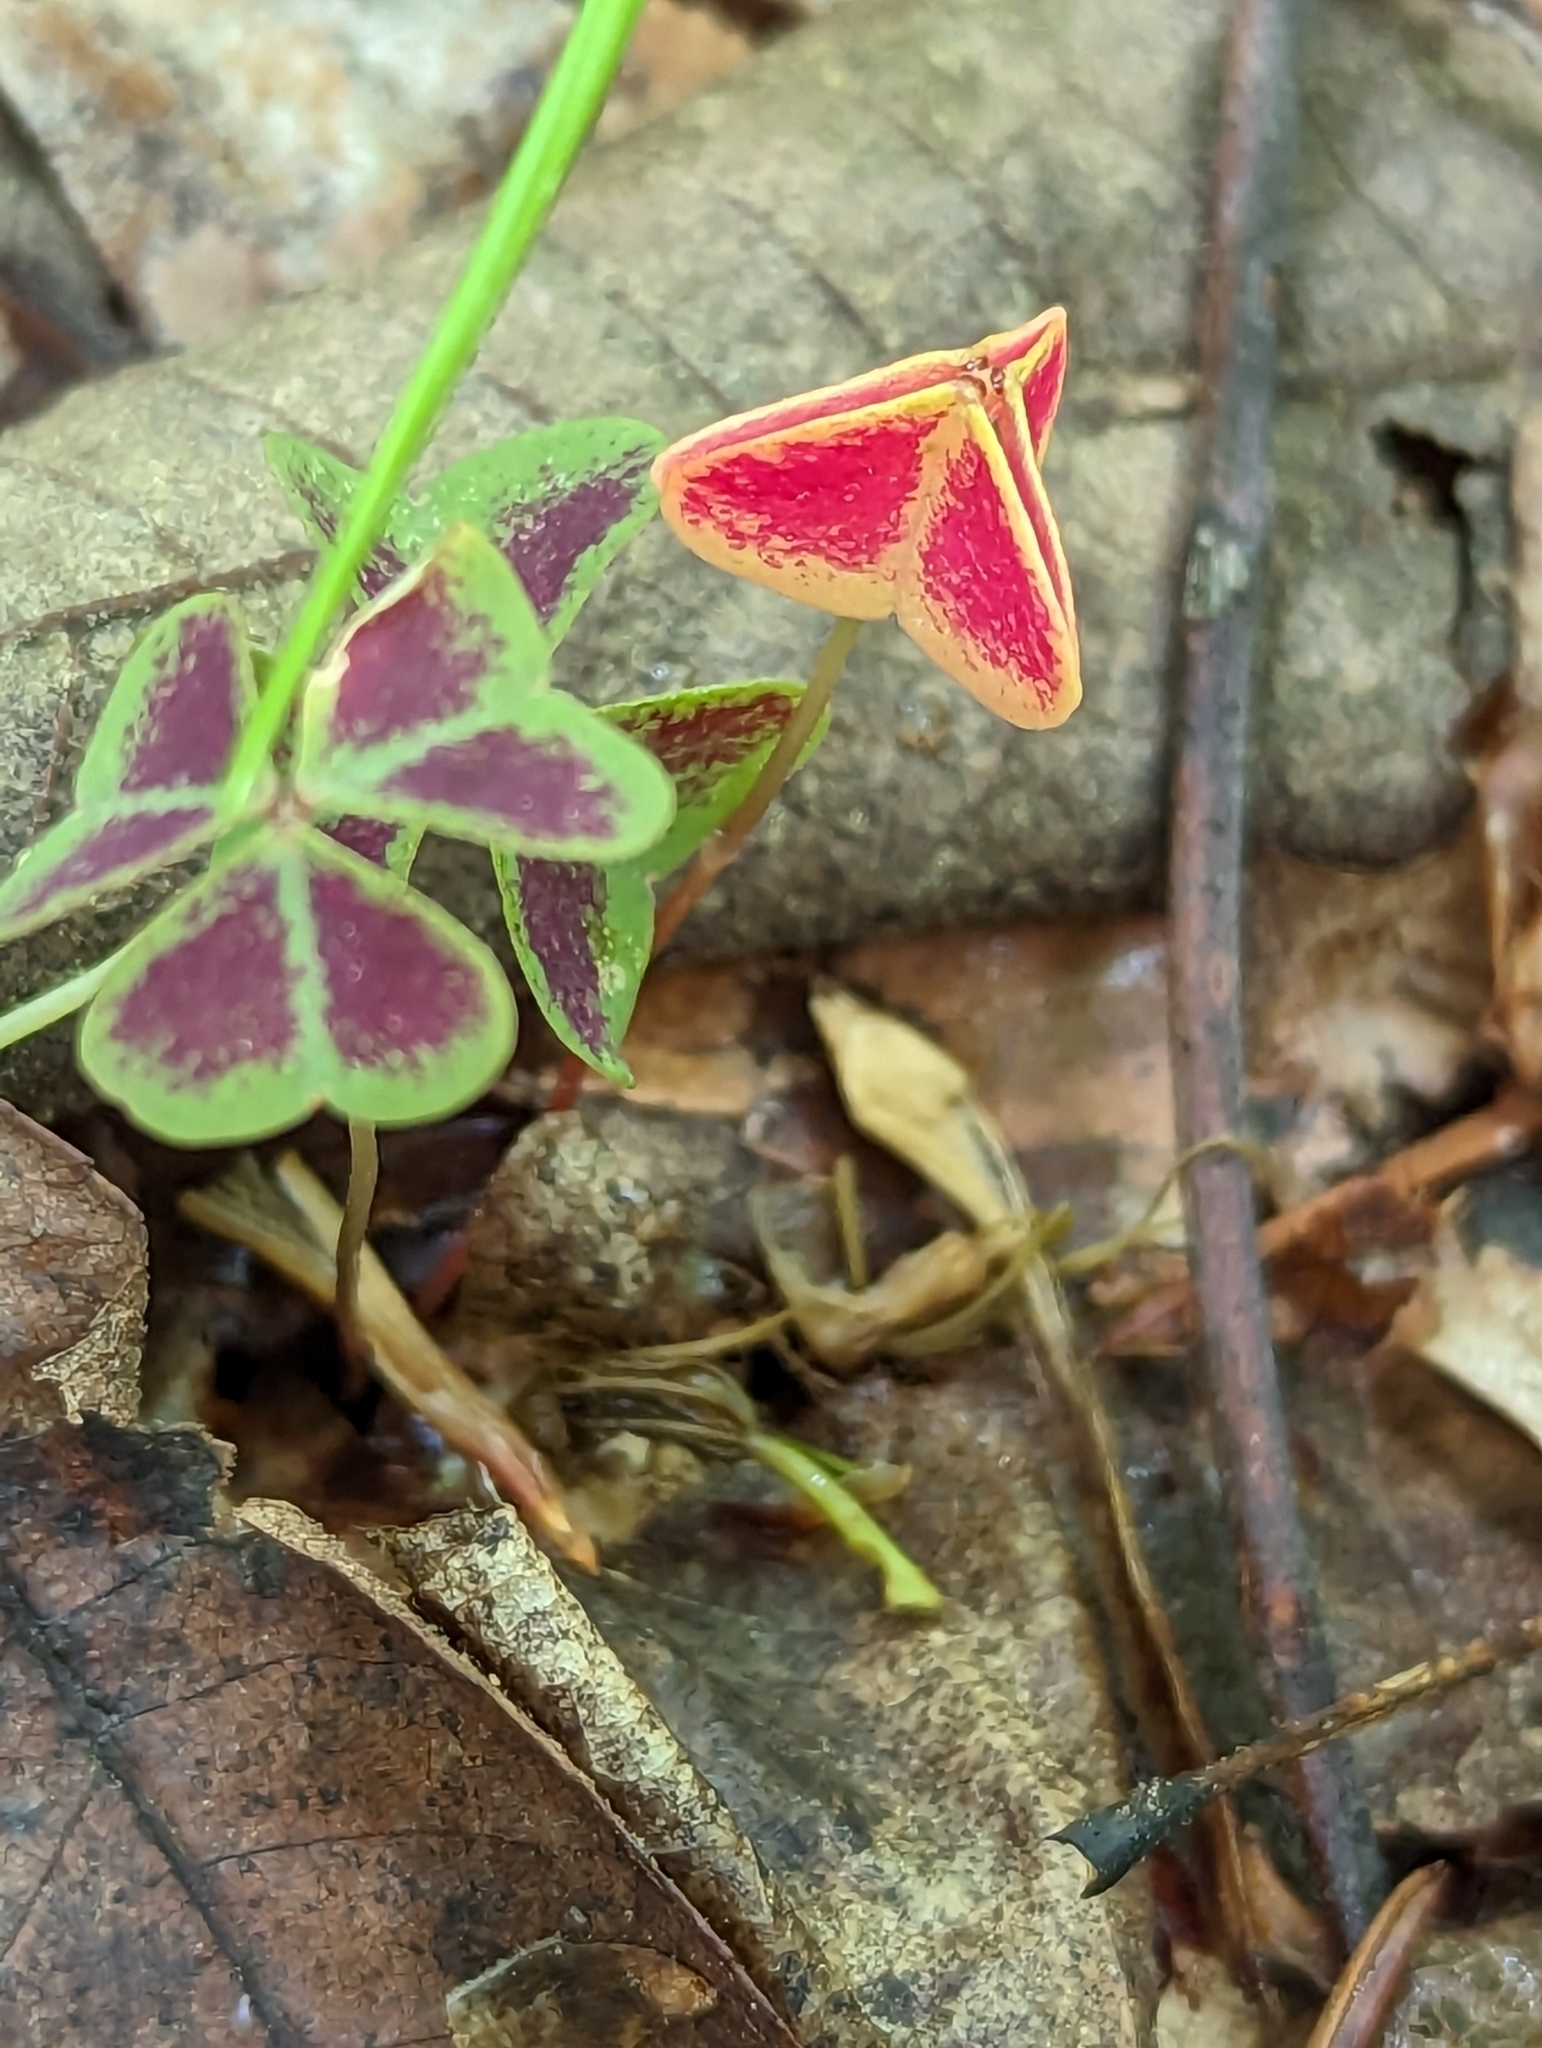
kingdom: Plantae
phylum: Tracheophyta
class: Magnoliopsida
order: Oxalidales
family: Oxalidaceae
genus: Oxalis
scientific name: Oxalis violacea
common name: Violet wood-sorrel
